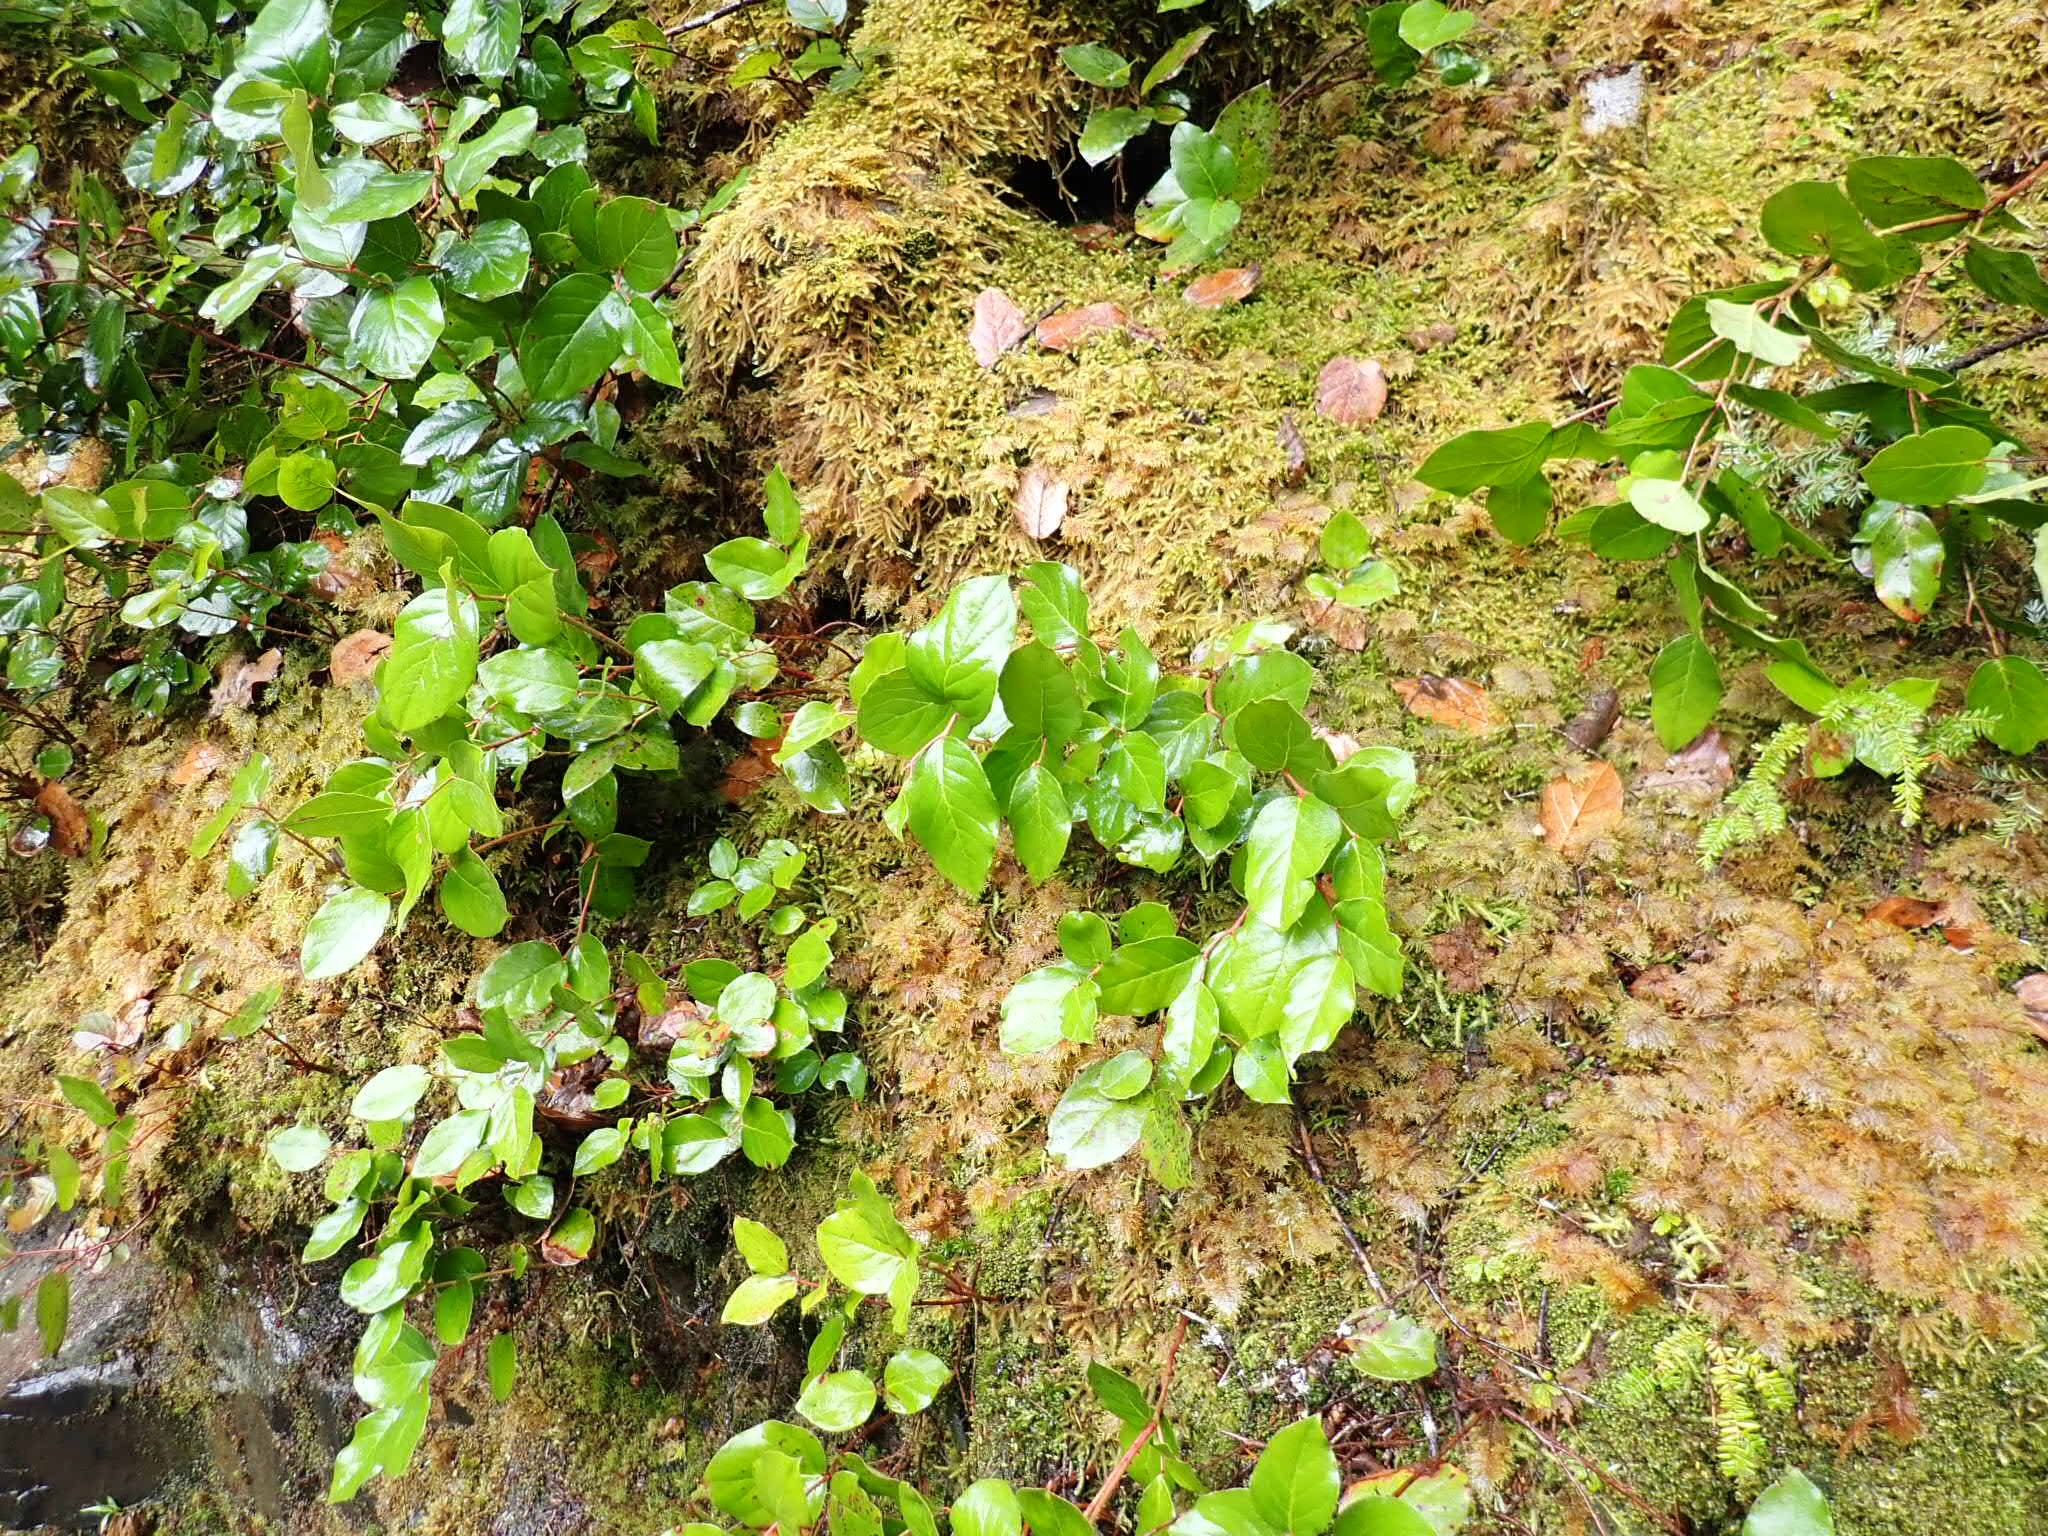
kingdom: Plantae
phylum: Tracheophyta
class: Magnoliopsida
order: Ericales
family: Ericaceae
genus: Gaultheria
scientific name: Gaultheria shallon
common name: Shallon
